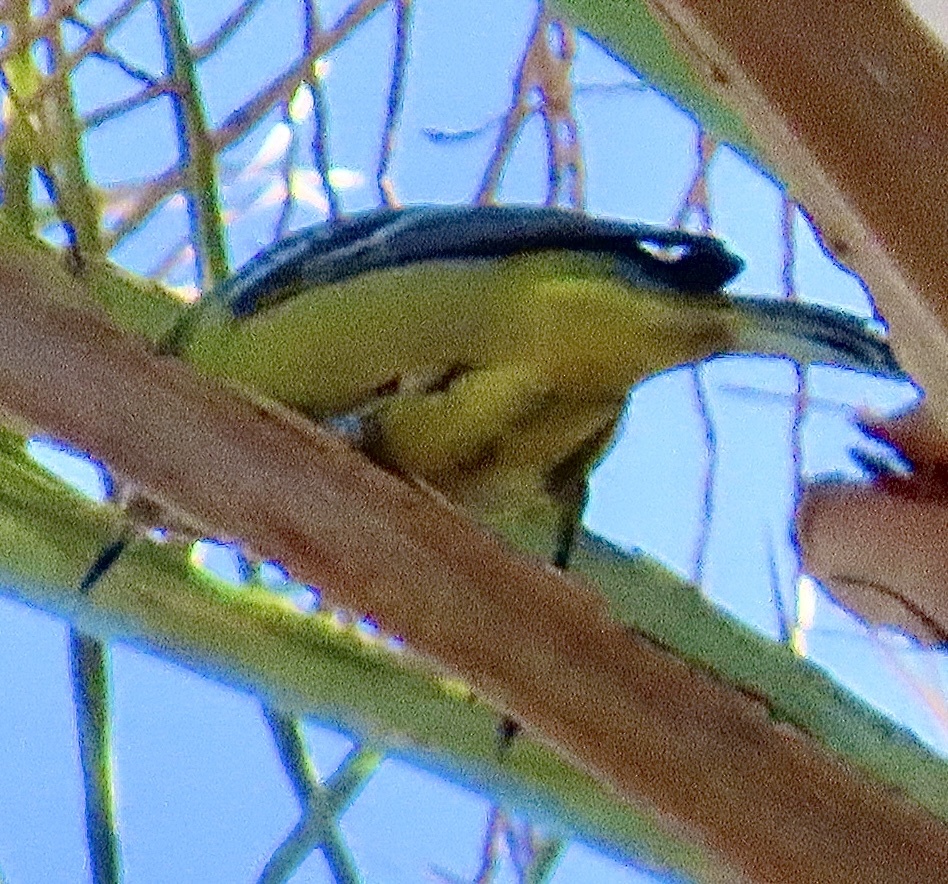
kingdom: Animalia
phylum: Chordata
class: Aves
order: Passeriformes
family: Icteridae
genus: Icterus
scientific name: Icterus parisorum
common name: Scott's oriole
